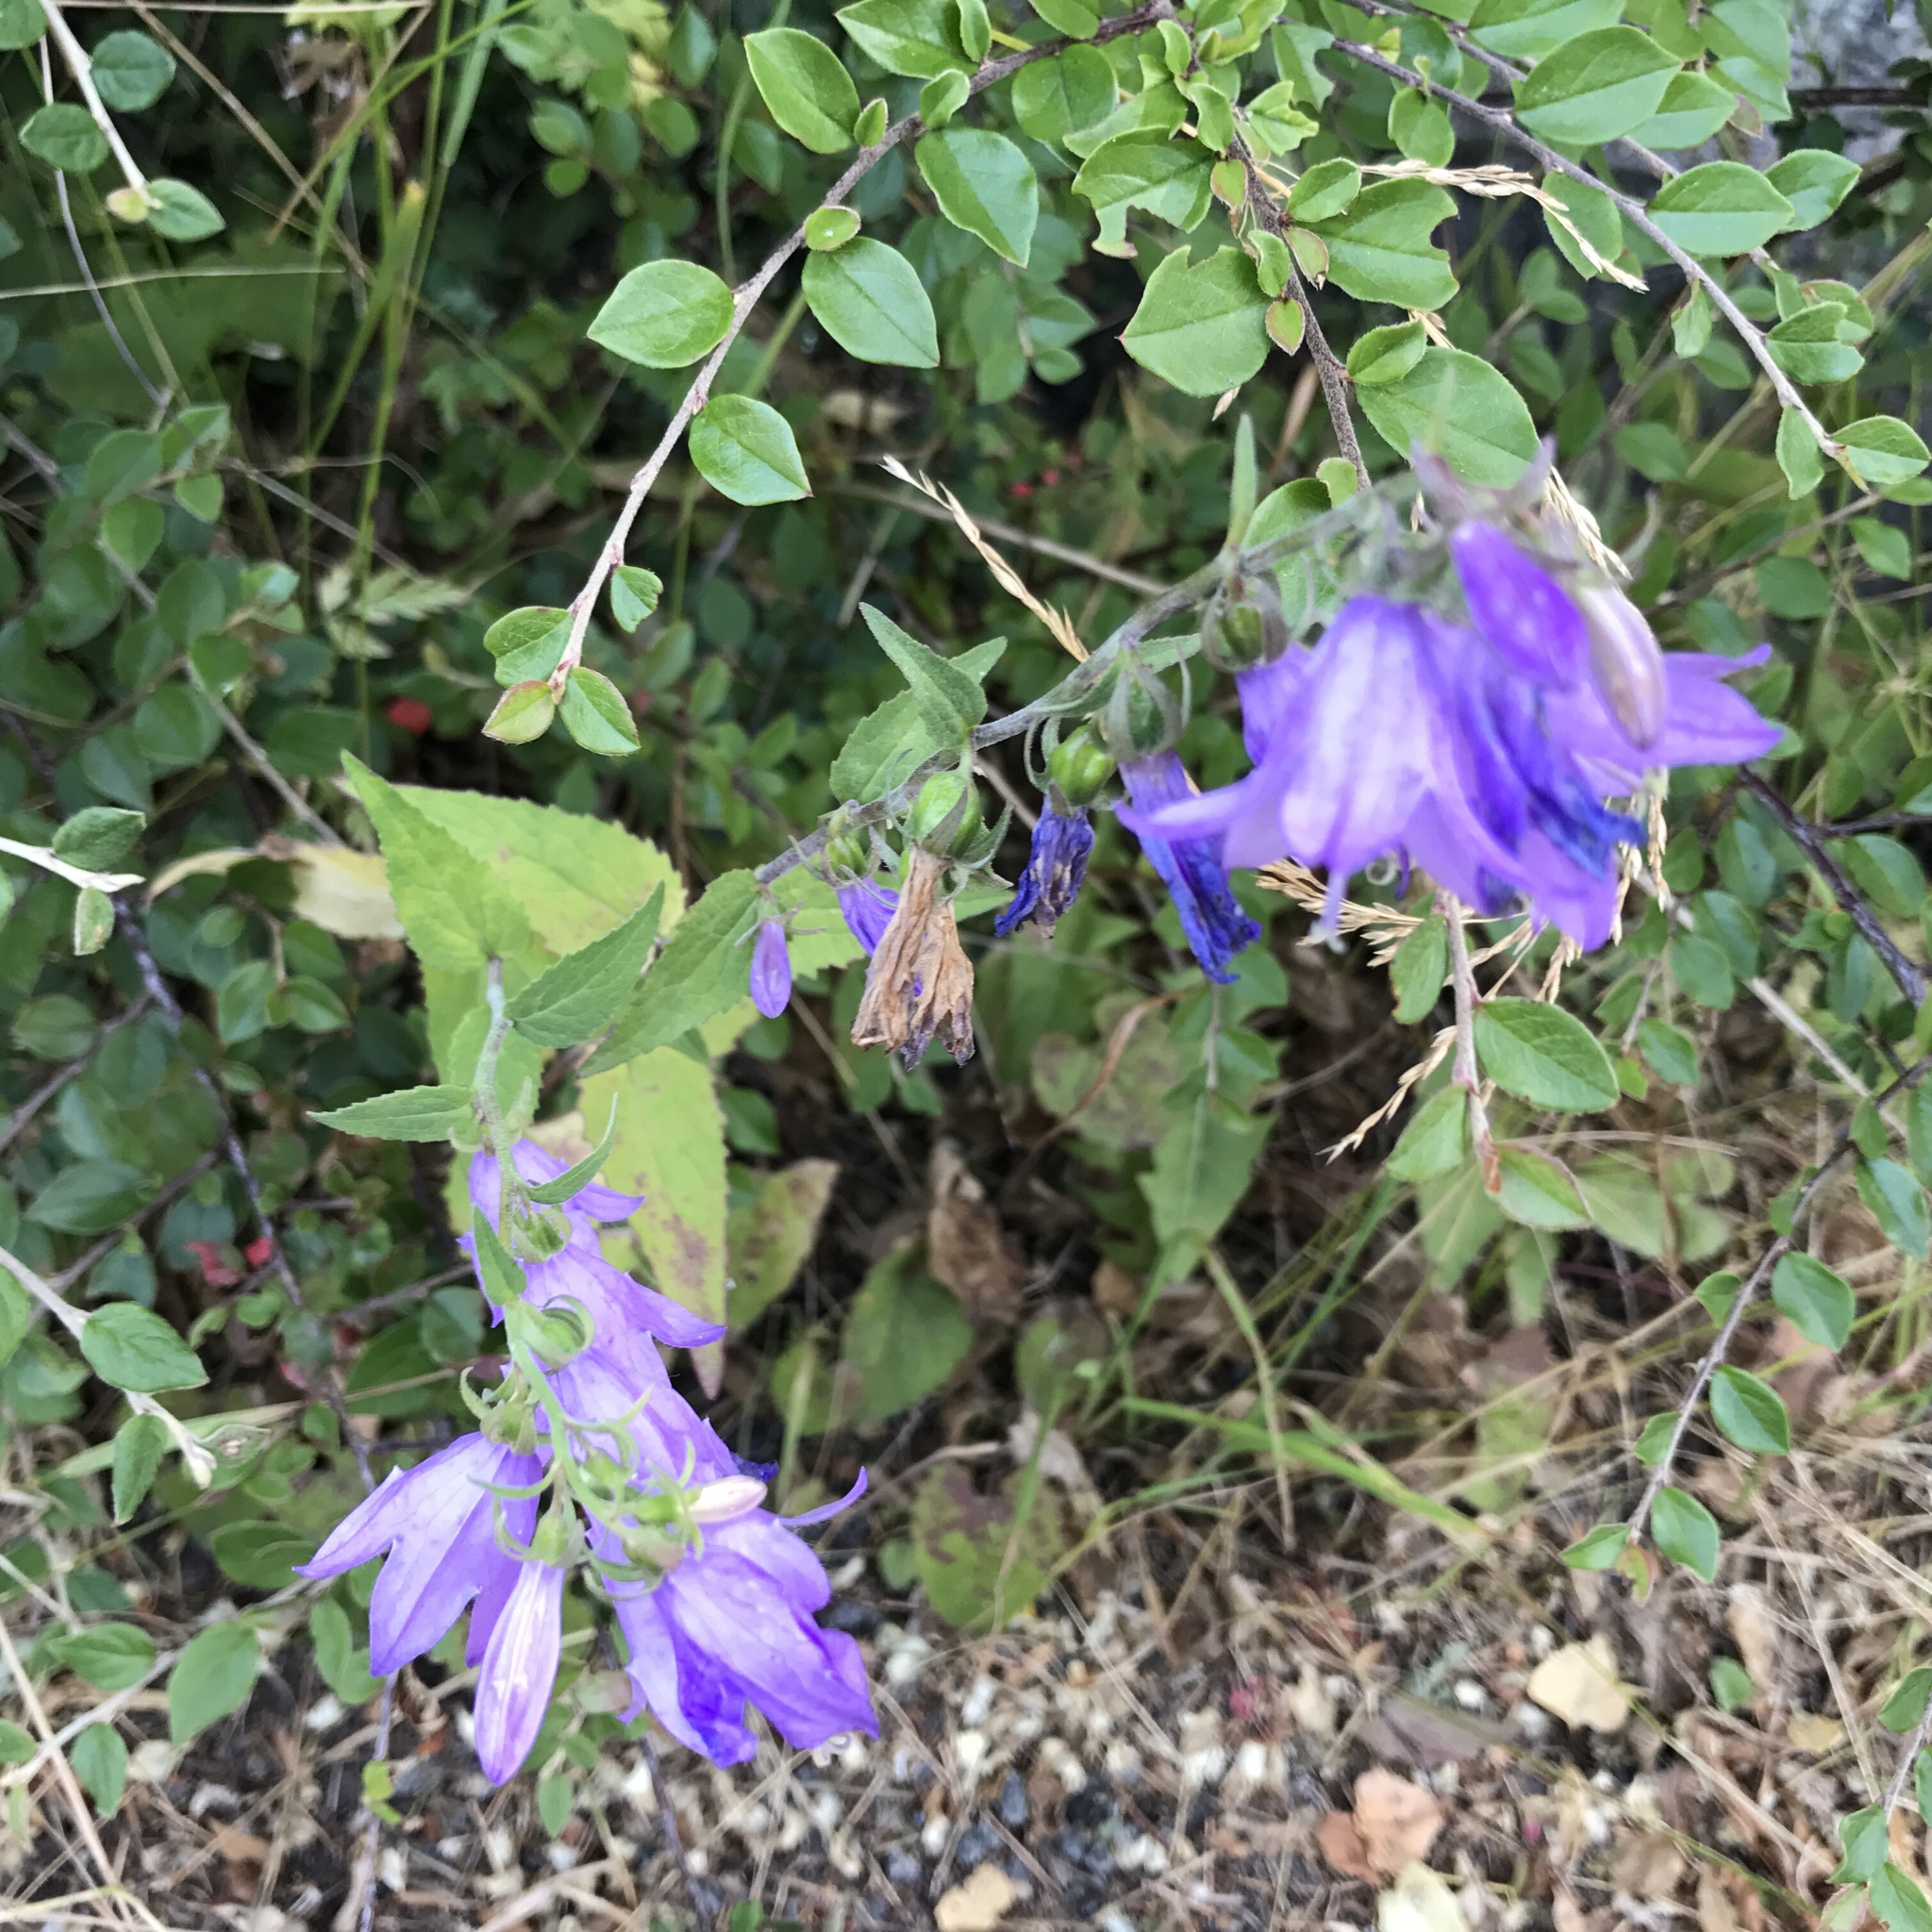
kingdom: Plantae
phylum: Tracheophyta
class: Magnoliopsida
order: Asterales
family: Campanulaceae
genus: Campanula
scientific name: Campanula rapunculoides
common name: Creeping bellflower
